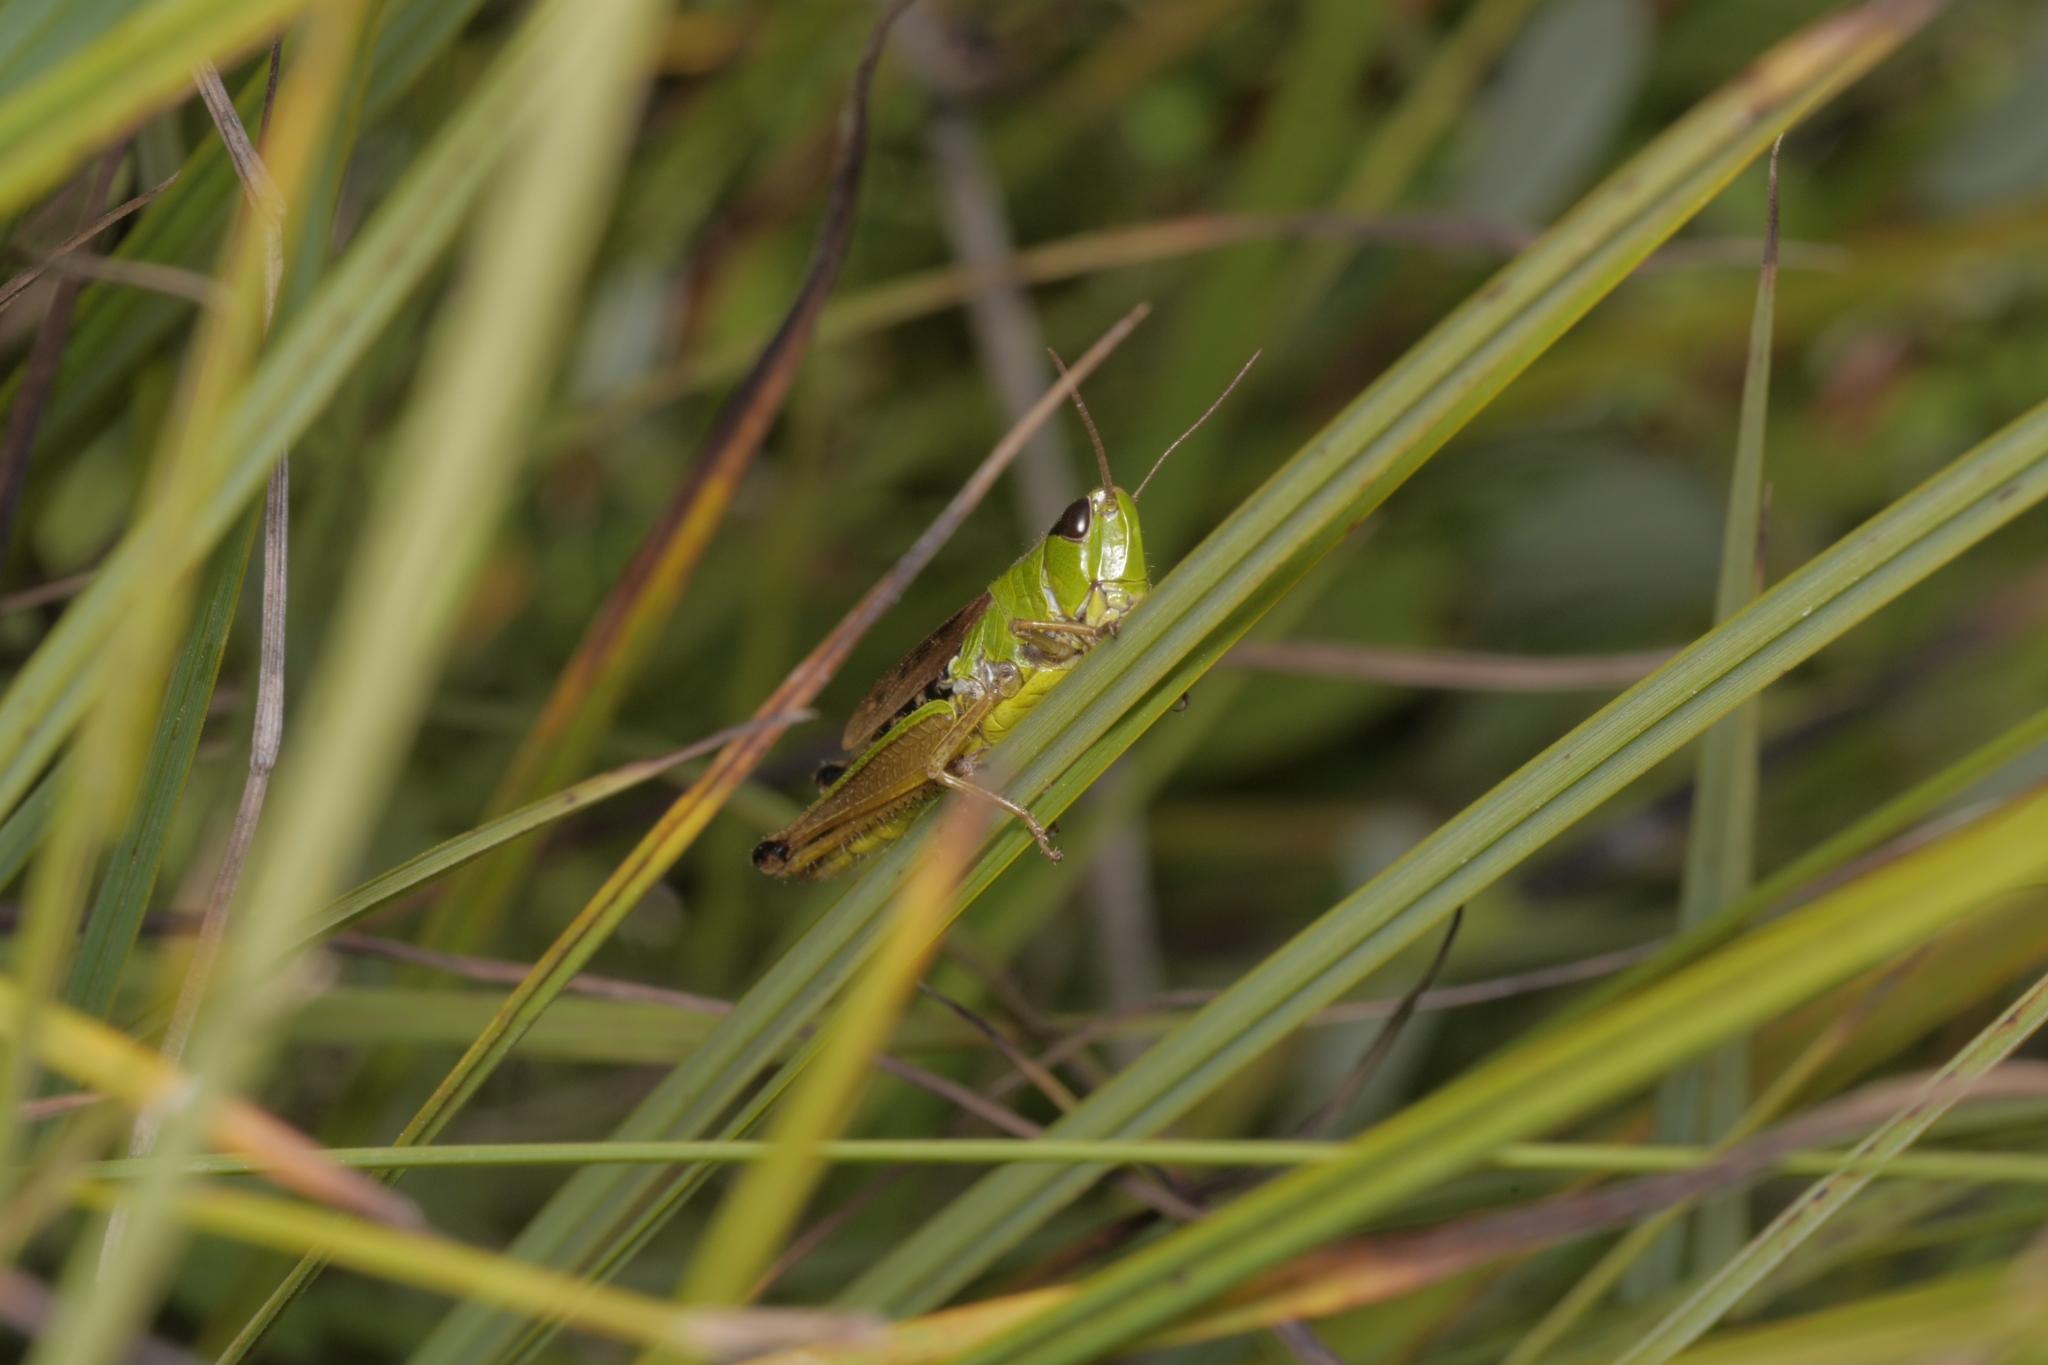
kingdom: Animalia
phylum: Arthropoda
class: Insecta
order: Orthoptera
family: Acrididae
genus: Pseudochorthippus
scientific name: Pseudochorthippus montanus
